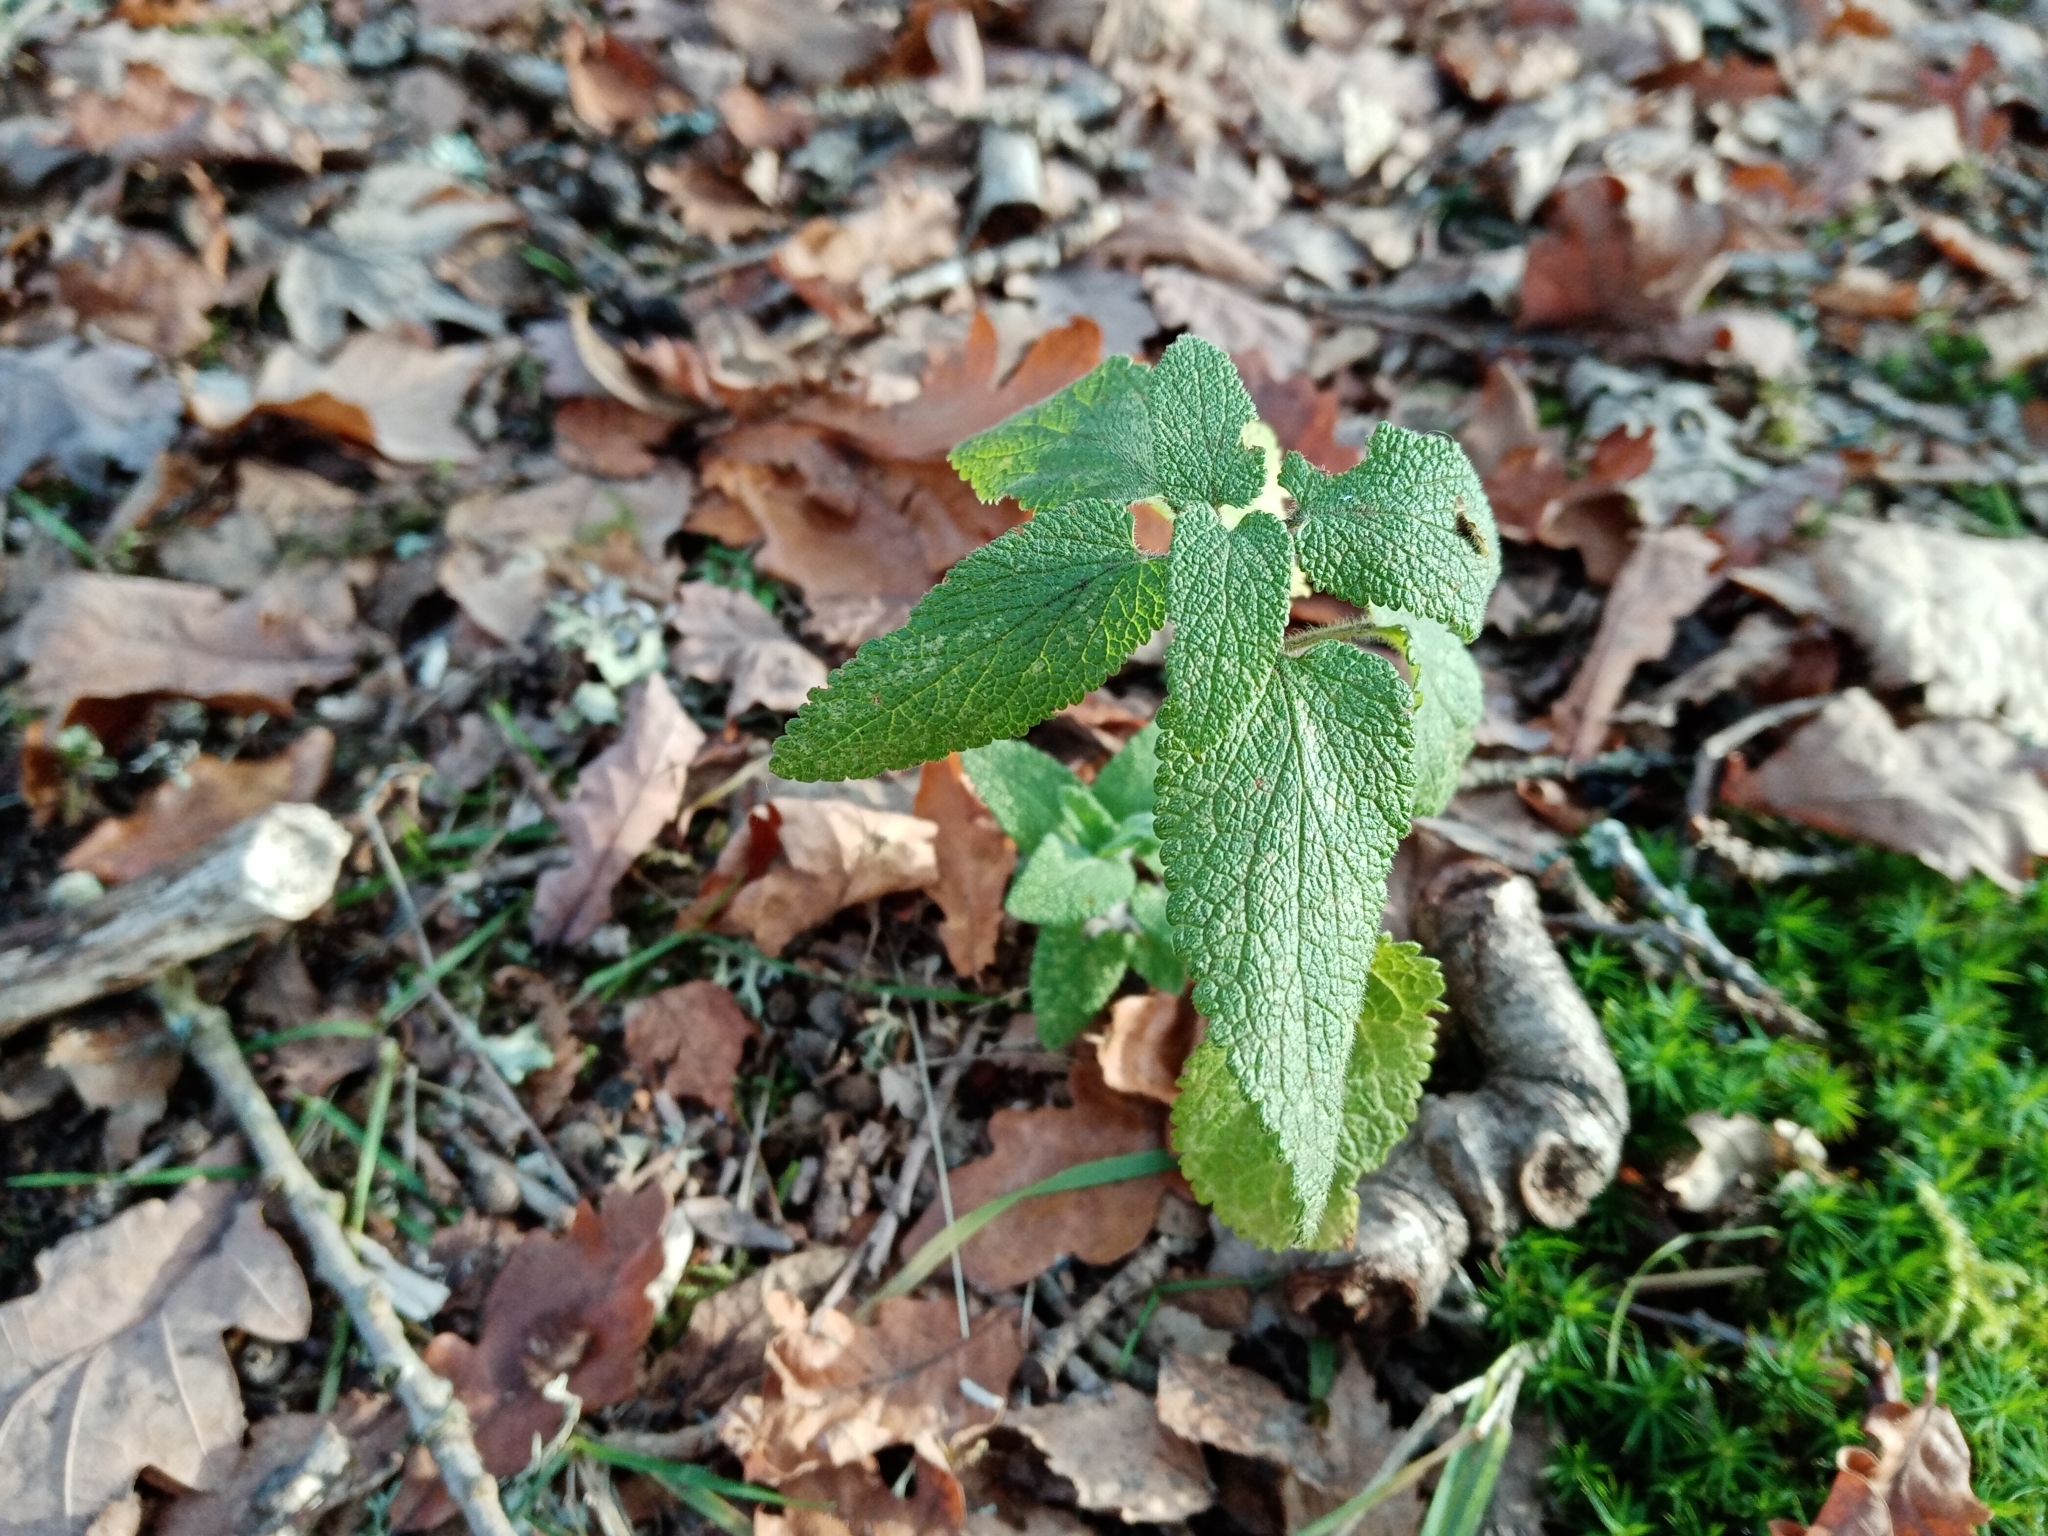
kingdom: Plantae
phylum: Tracheophyta
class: Magnoliopsida
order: Lamiales
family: Lamiaceae
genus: Teucrium
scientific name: Teucrium scorodonia
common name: Woodland germander
